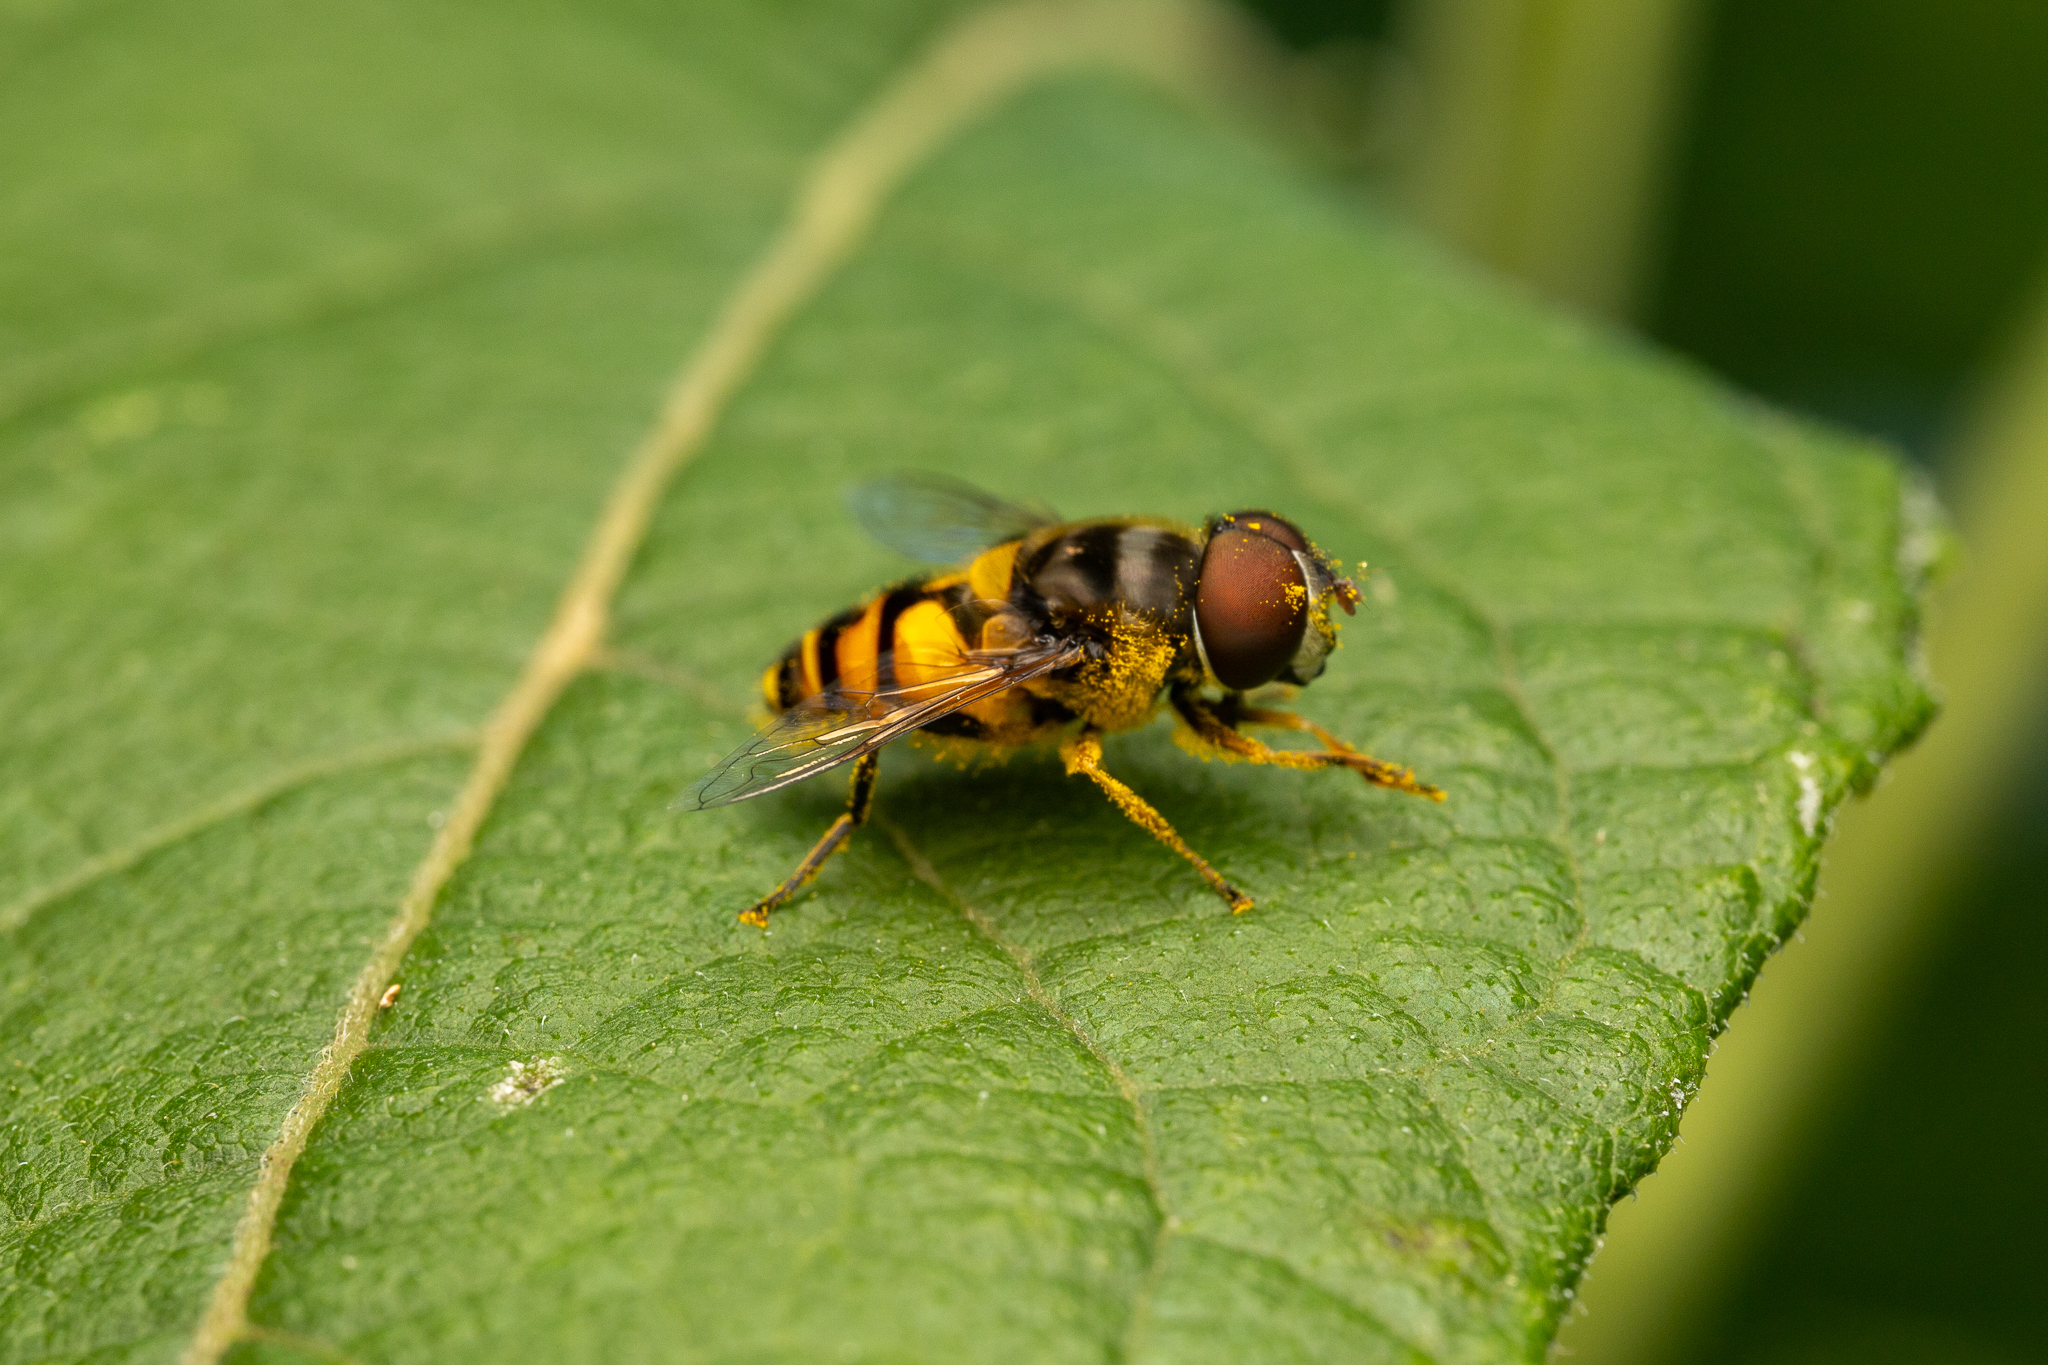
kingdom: Animalia
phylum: Arthropoda
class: Insecta
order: Diptera
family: Syrphidae
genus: Eristalis
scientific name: Eristalis transversa
